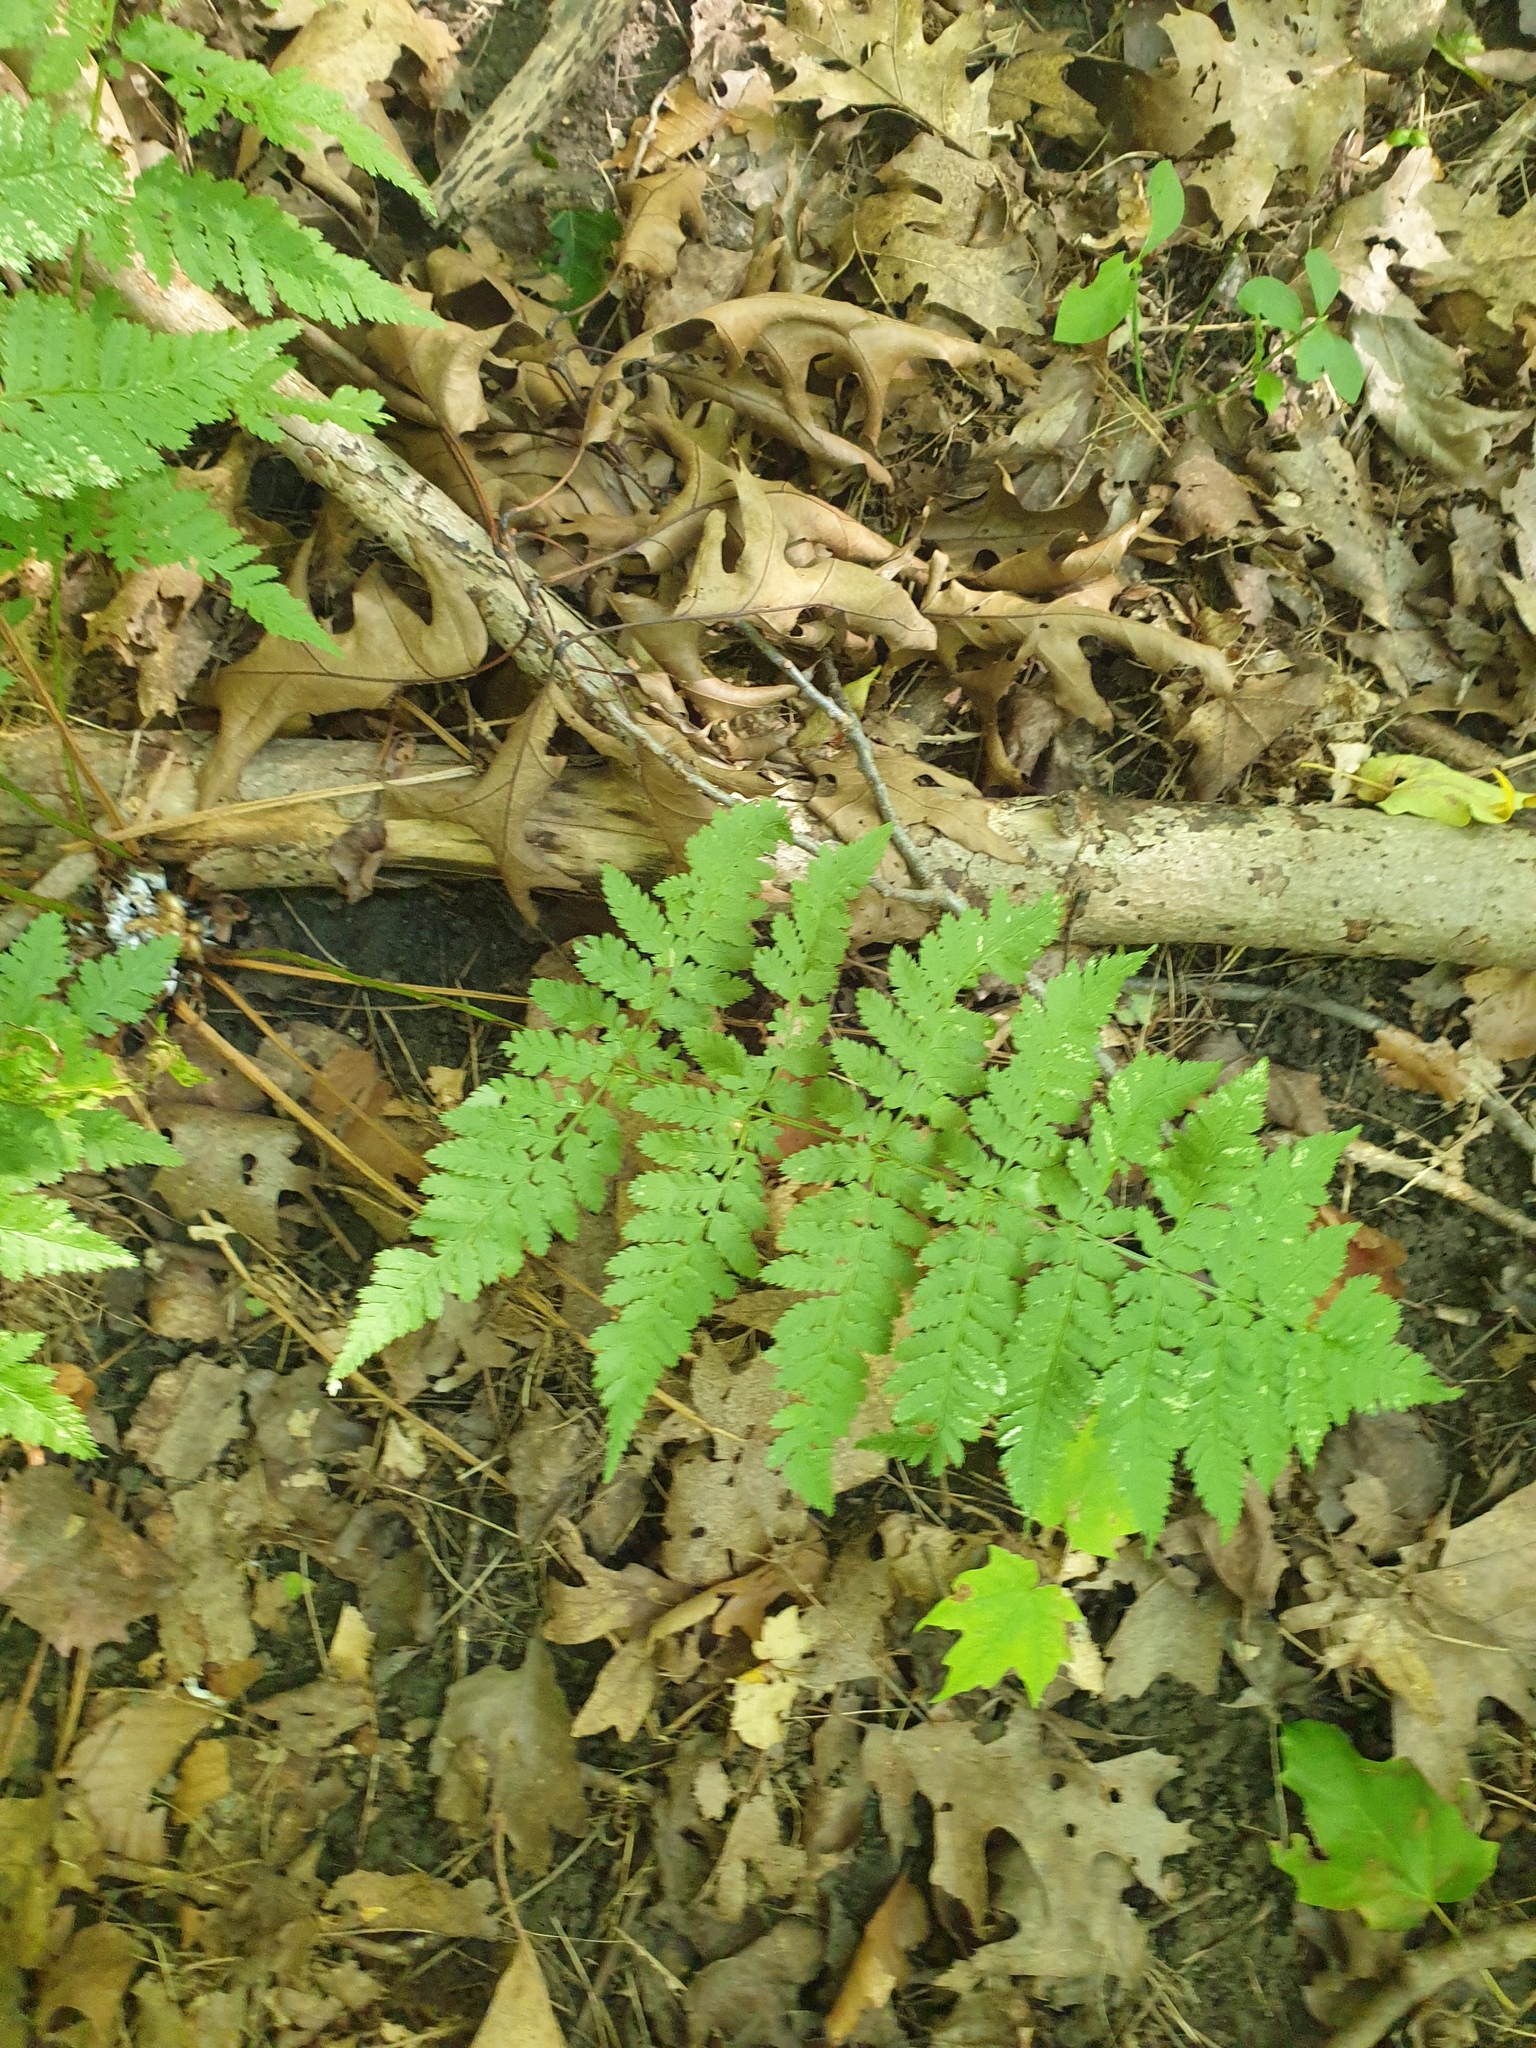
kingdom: Plantae
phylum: Tracheophyta
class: Polypodiopsida
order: Polypodiales
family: Dryopteridaceae
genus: Dryopteris
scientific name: Dryopteris carthusiana
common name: Narrow buckler-fern
